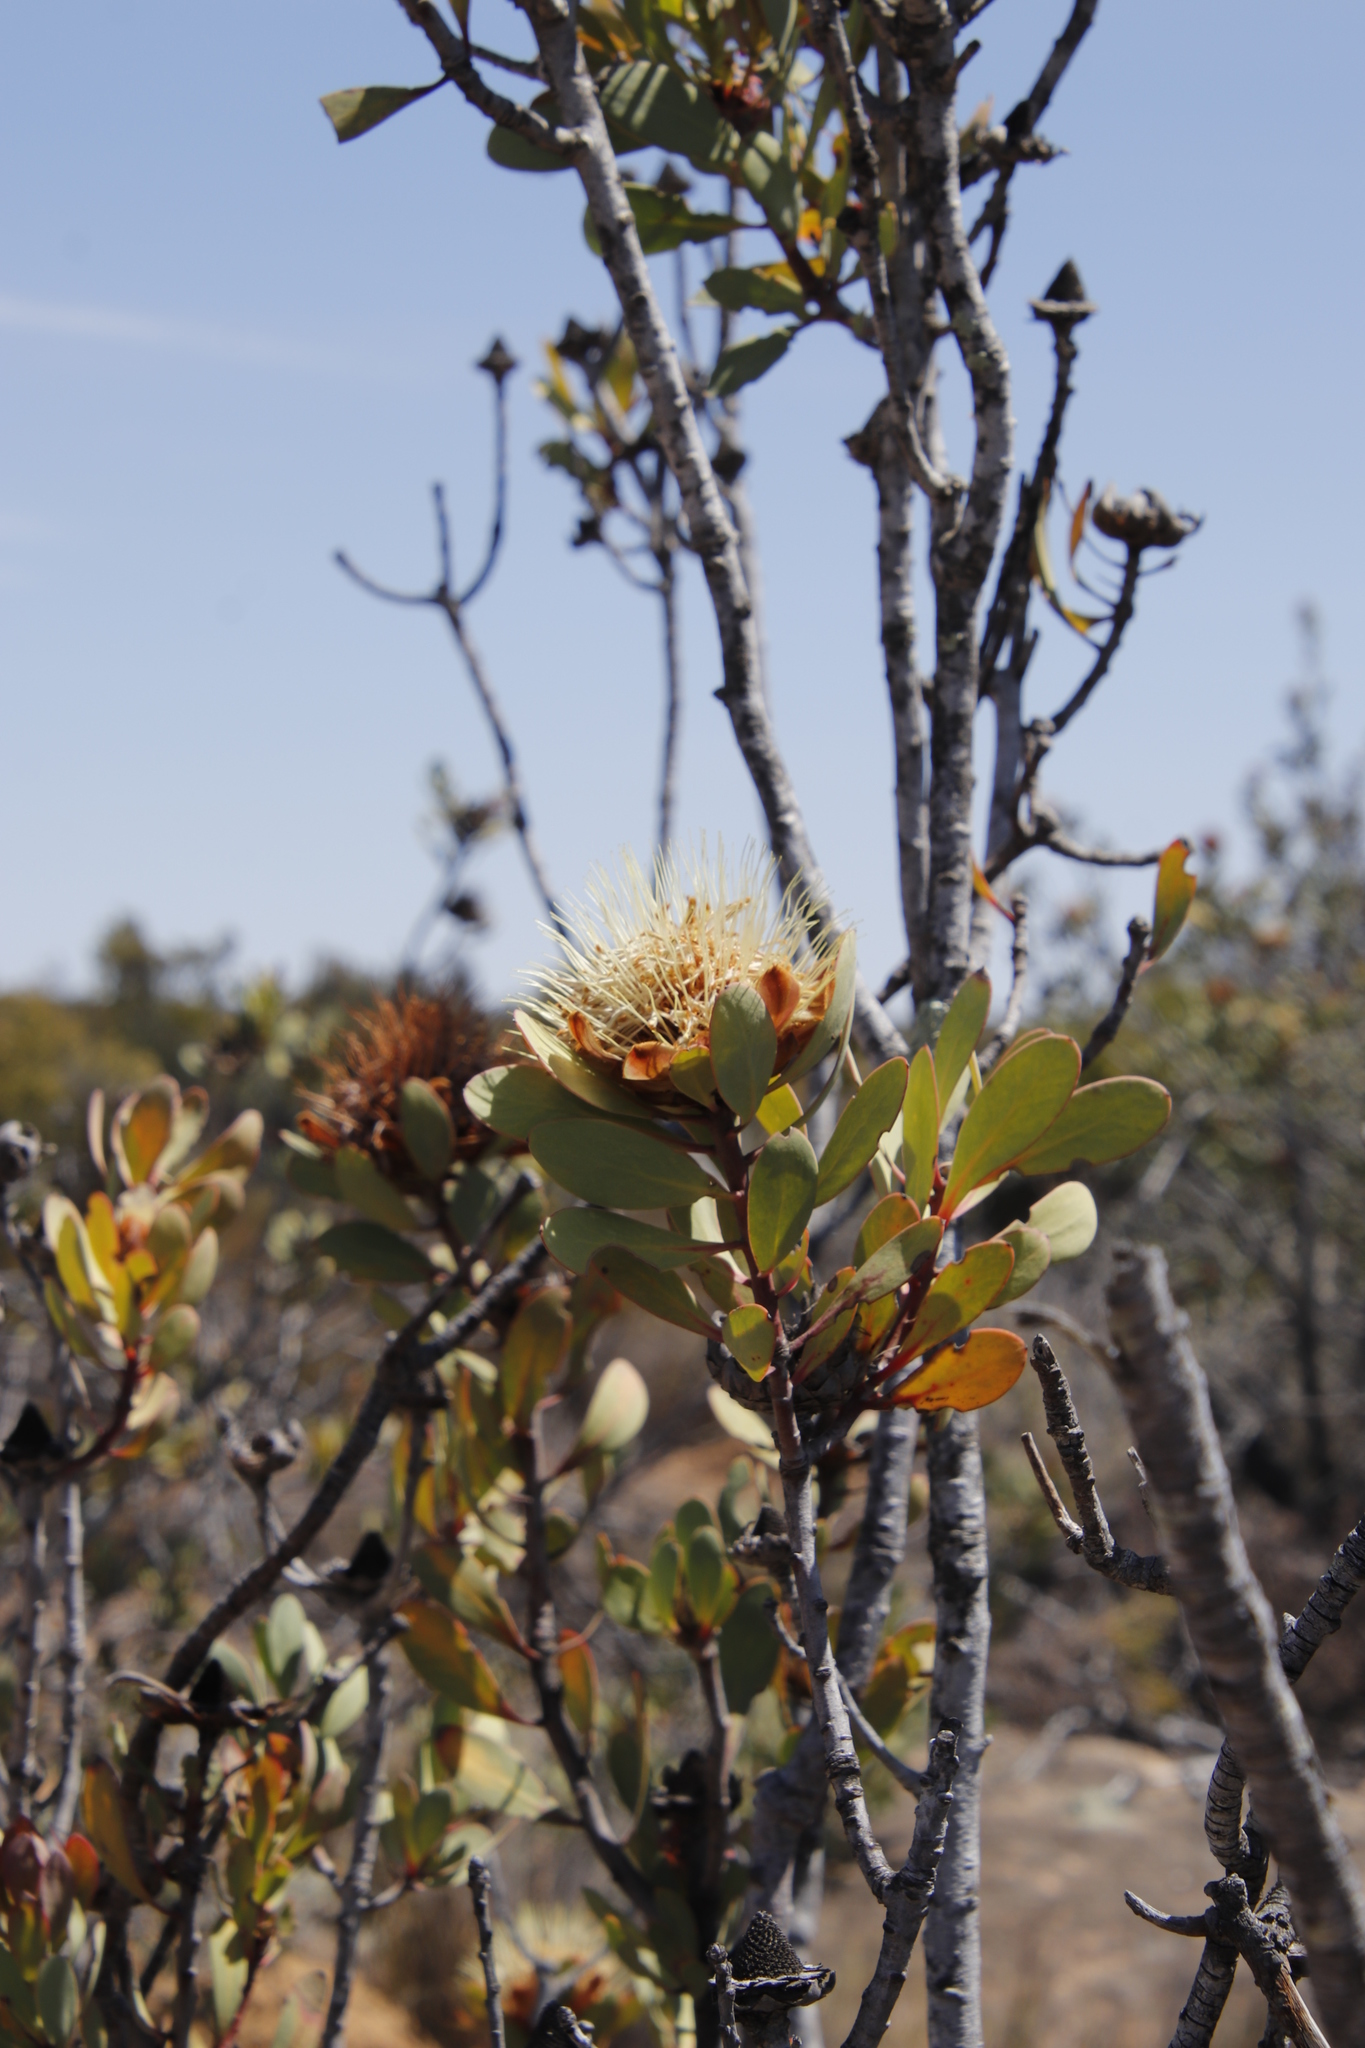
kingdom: Plantae
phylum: Tracheophyta
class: Magnoliopsida
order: Proteales
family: Proteaceae
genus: Protea
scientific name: Protea glabra
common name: Chestnut sugarbush
